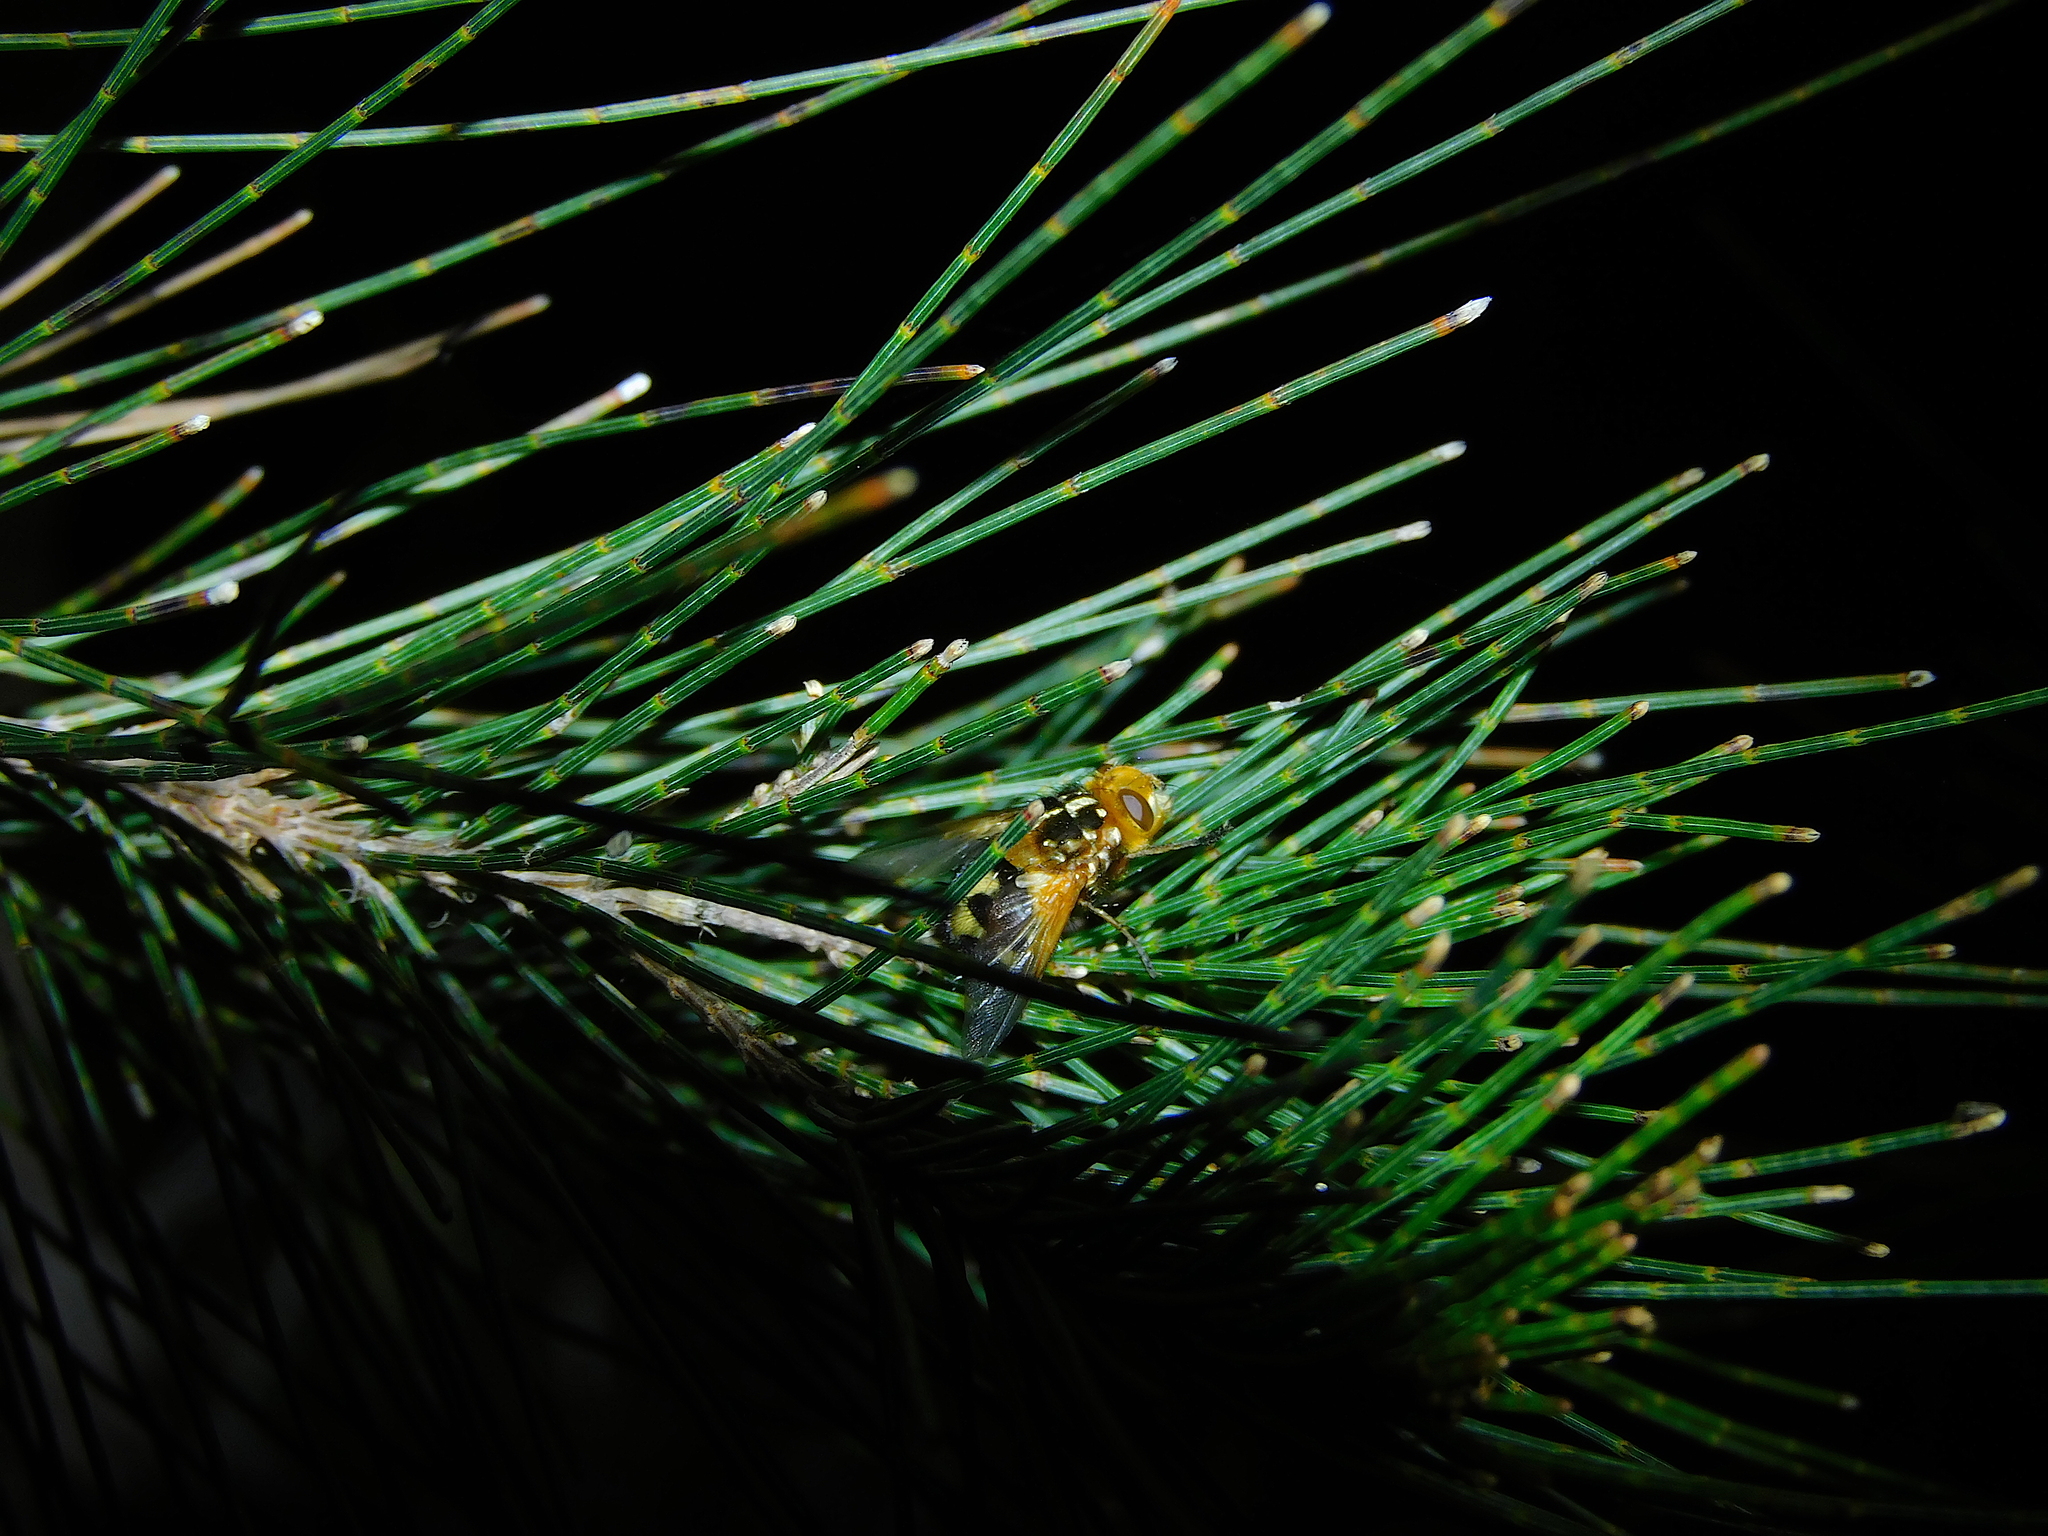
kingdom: Animalia
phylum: Arthropoda
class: Insecta
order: Diptera
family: Tachinidae
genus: Microtropesa
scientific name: Microtropesa nigricornis
